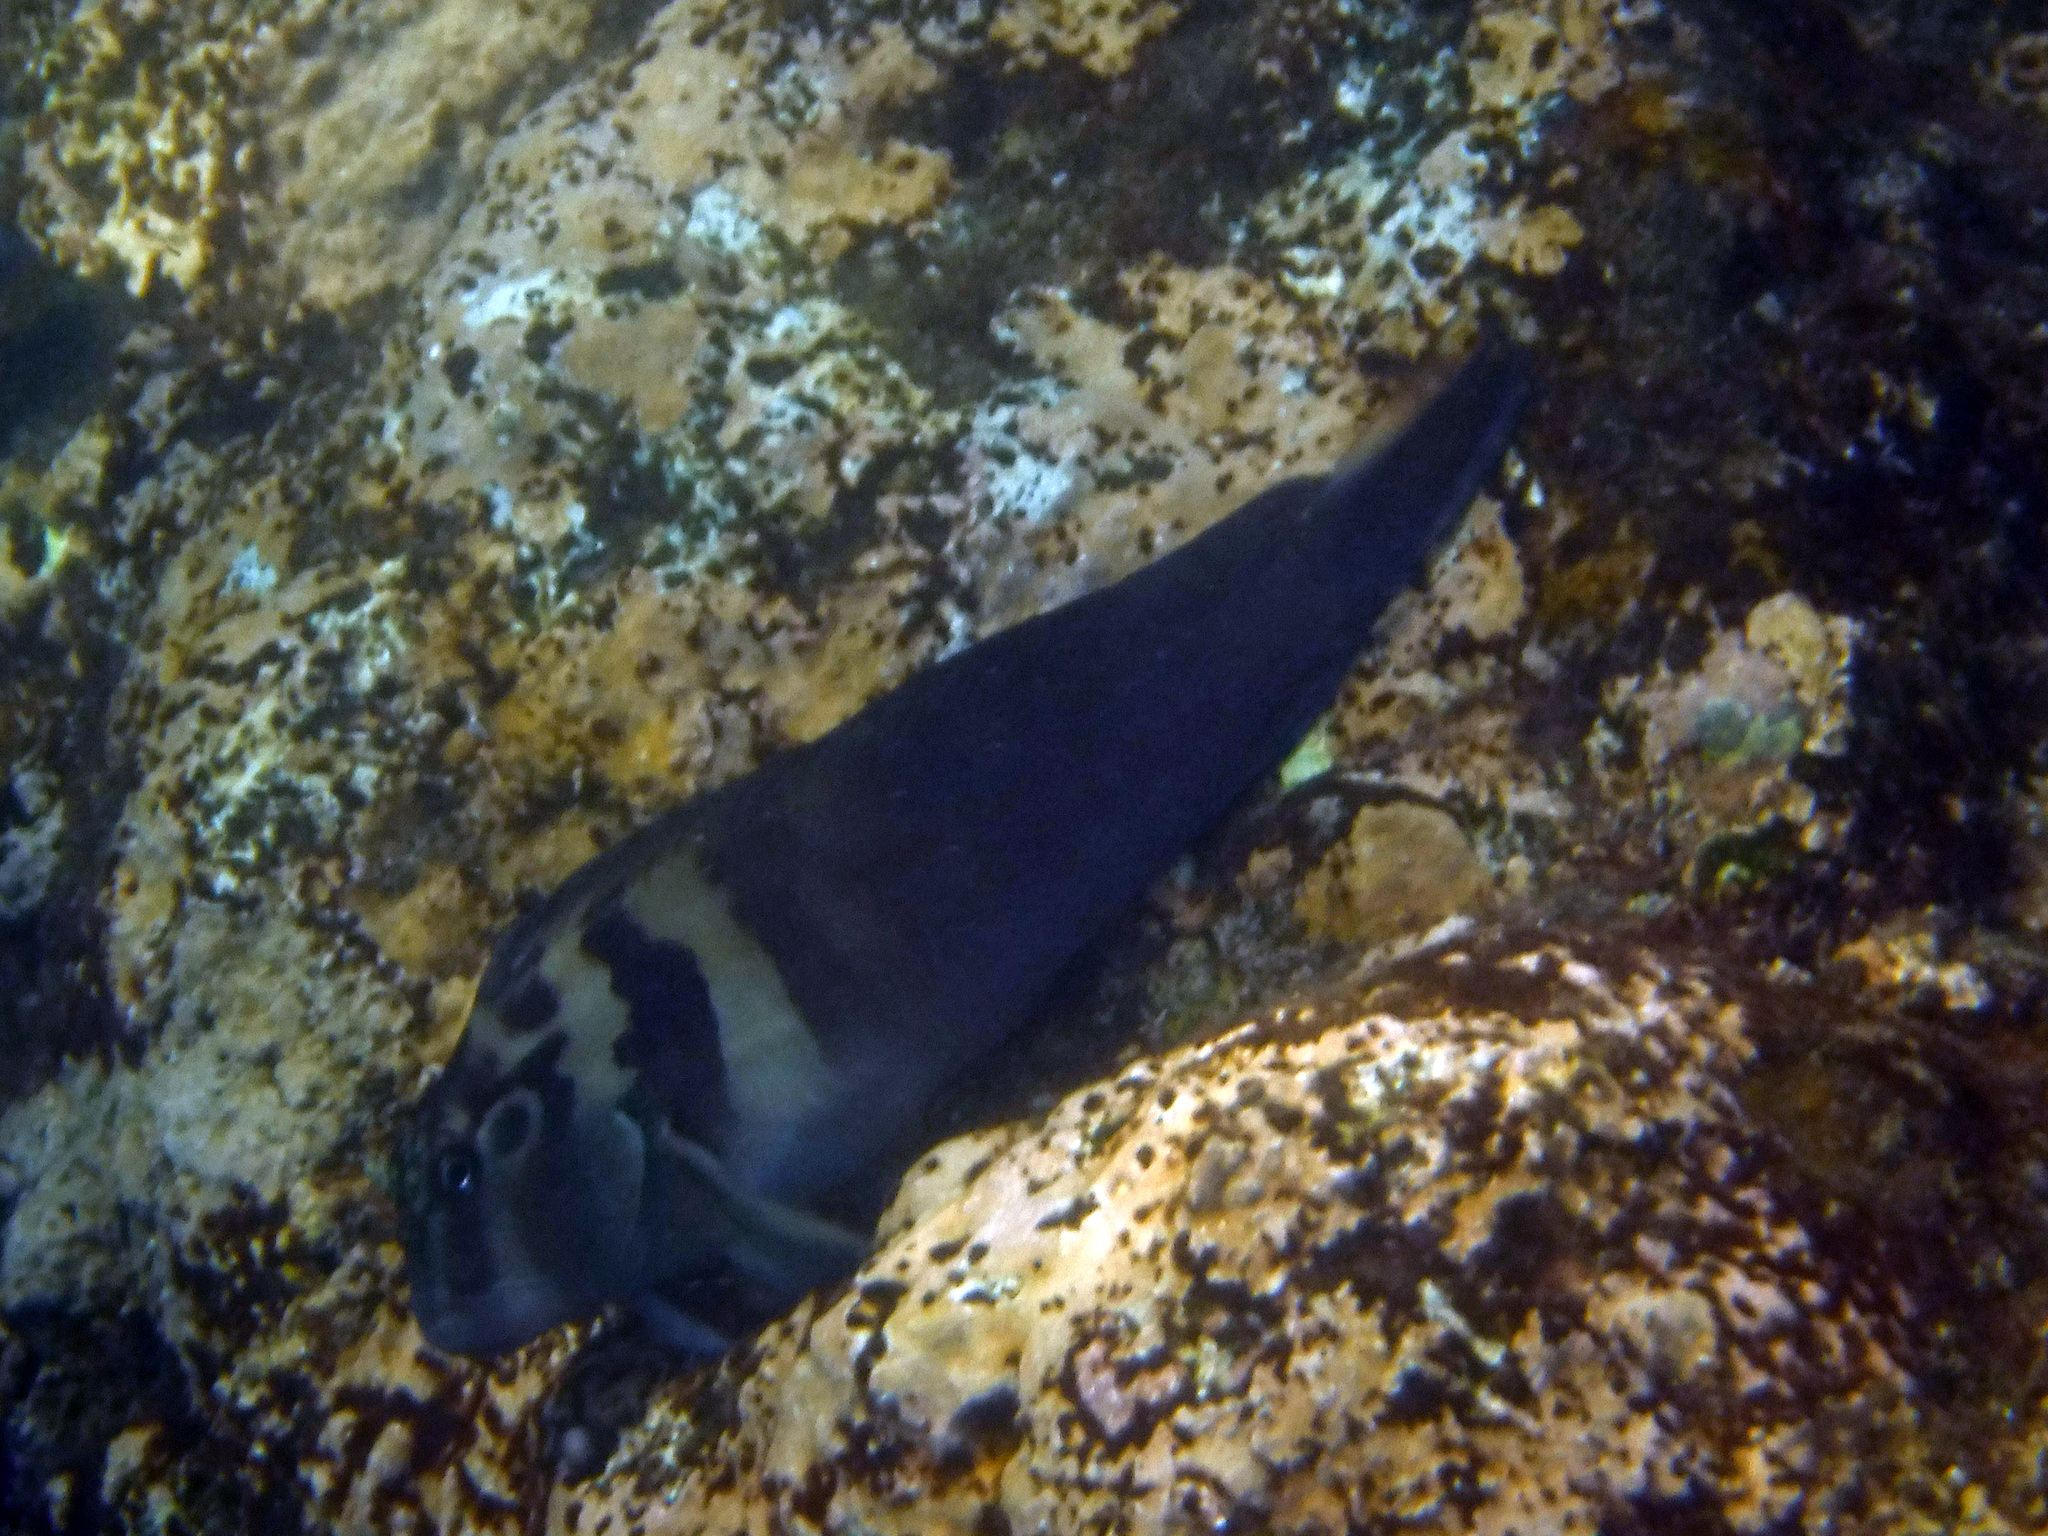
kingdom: Animalia
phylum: Chordata
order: Perciformes
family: Blenniidae
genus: Ophioblennius
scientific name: Ophioblennius steindachneri
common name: Panamic fanged blenny
